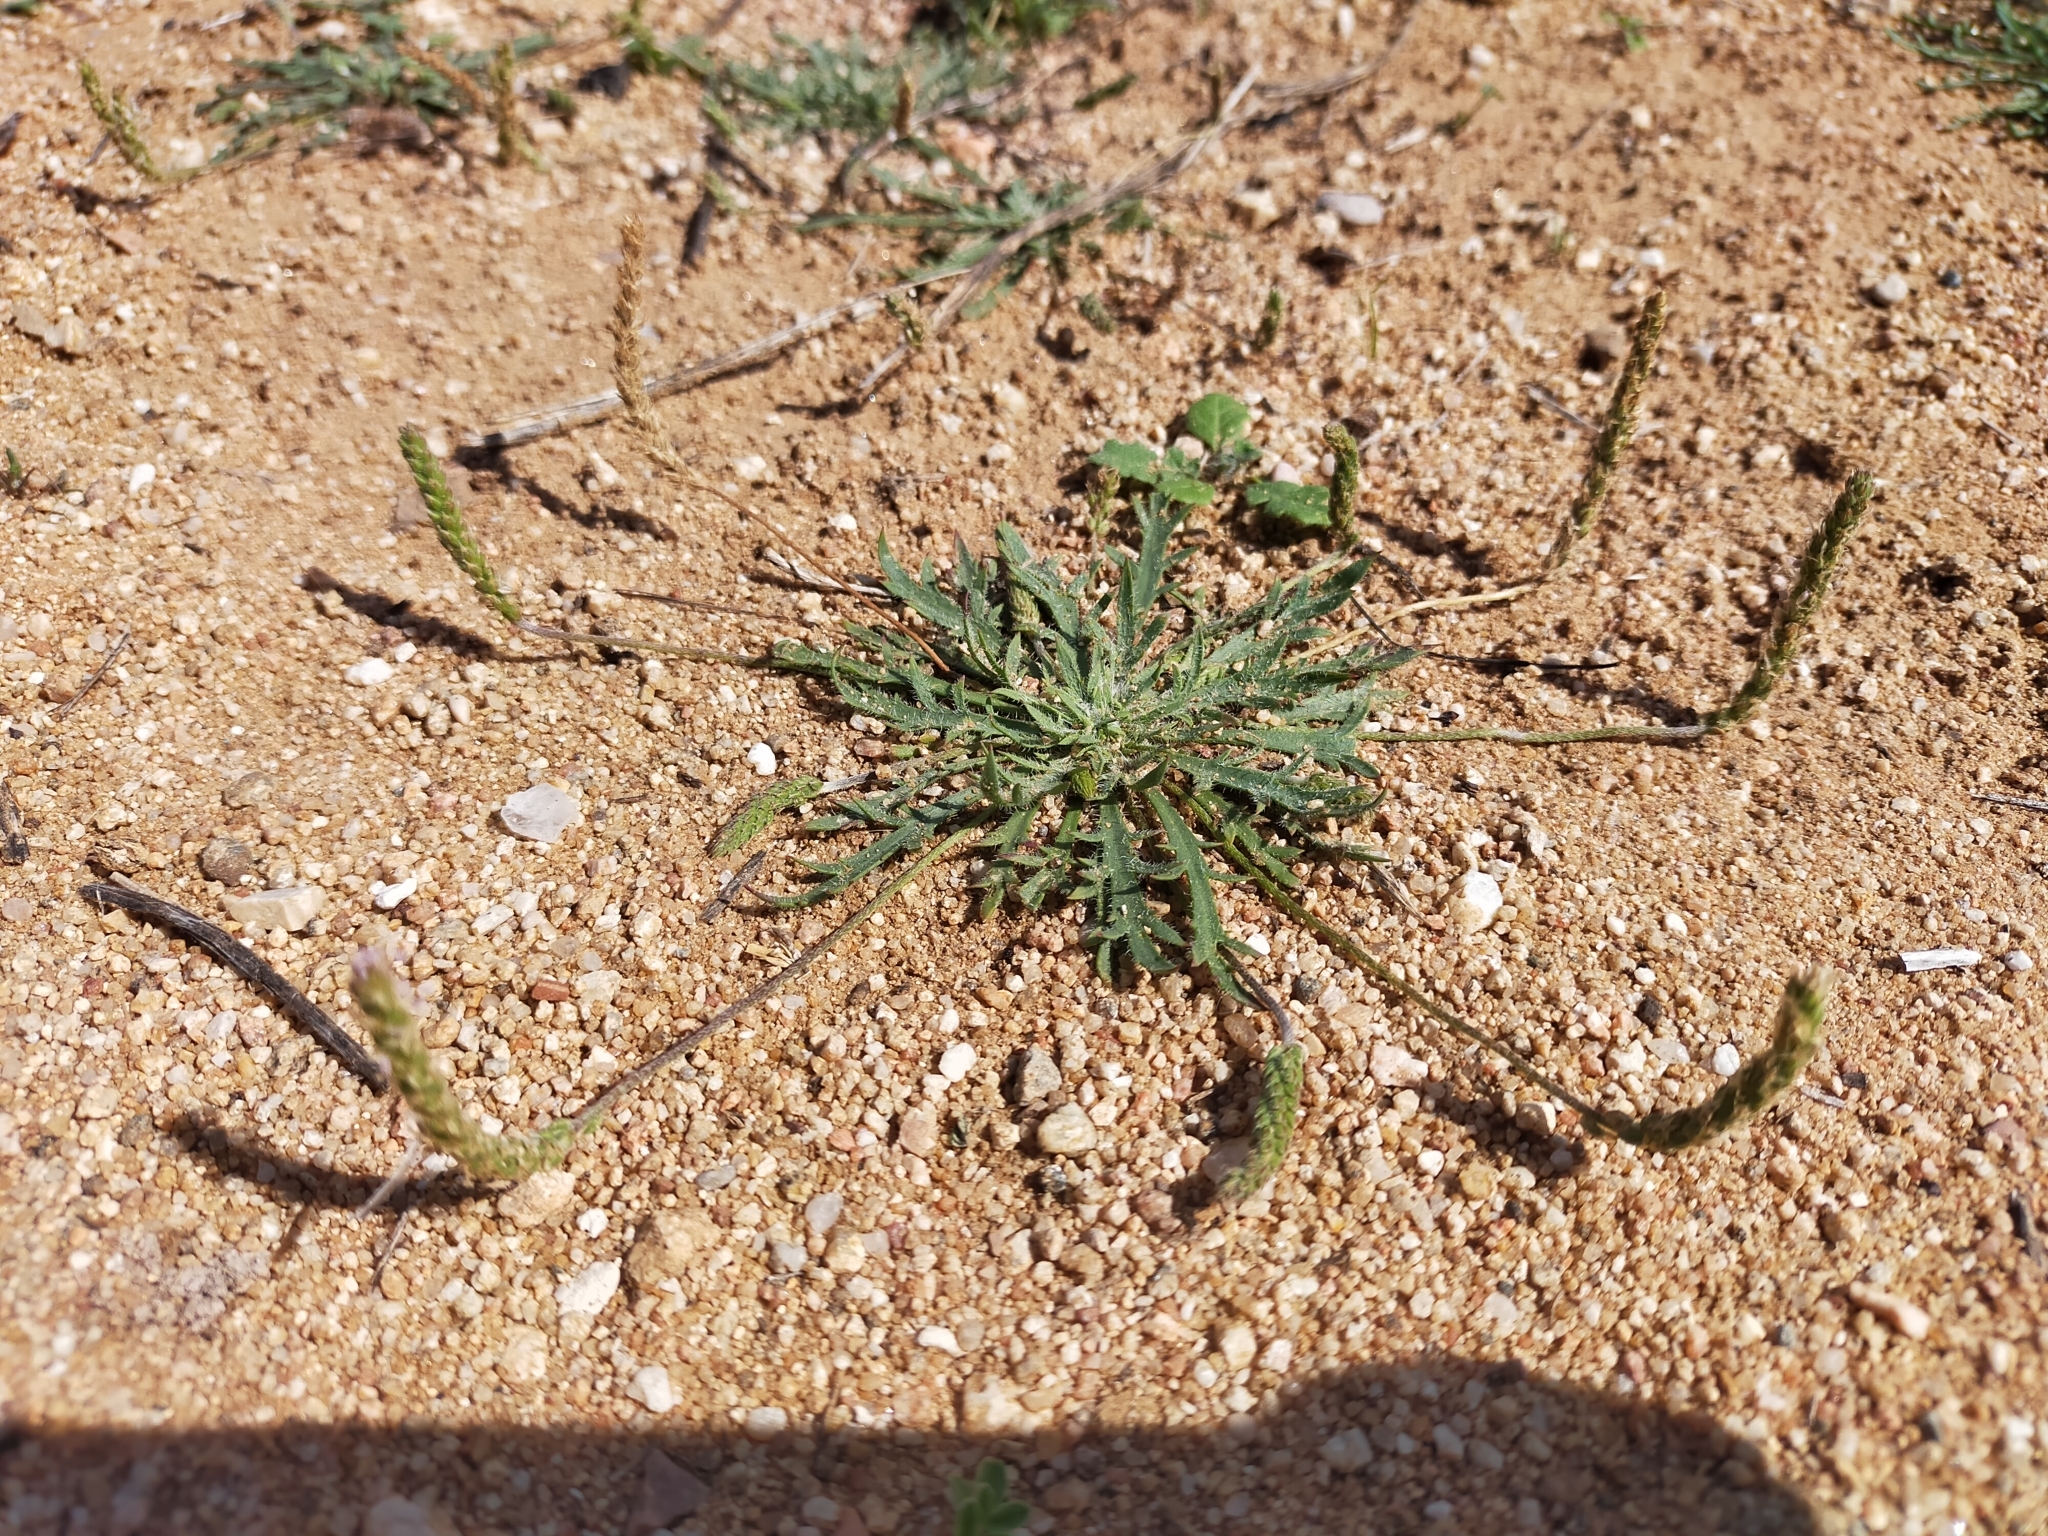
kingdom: Plantae
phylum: Tracheophyta
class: Magnoliopsida
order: Lamiales
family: Plantaginaceae
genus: Plantago
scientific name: Plantago coronopus
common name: Buck's-horn plantain
